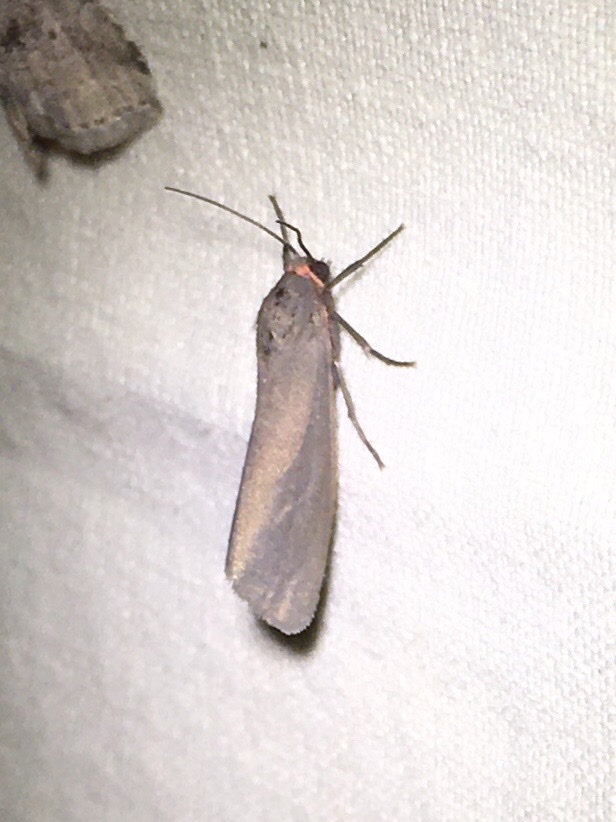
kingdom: Animalia
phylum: Arthropoda
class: Insecta
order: Lepidoptera
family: Erebidae
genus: Virbia
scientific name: Virbia laeta
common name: Joyful holomelina moth
